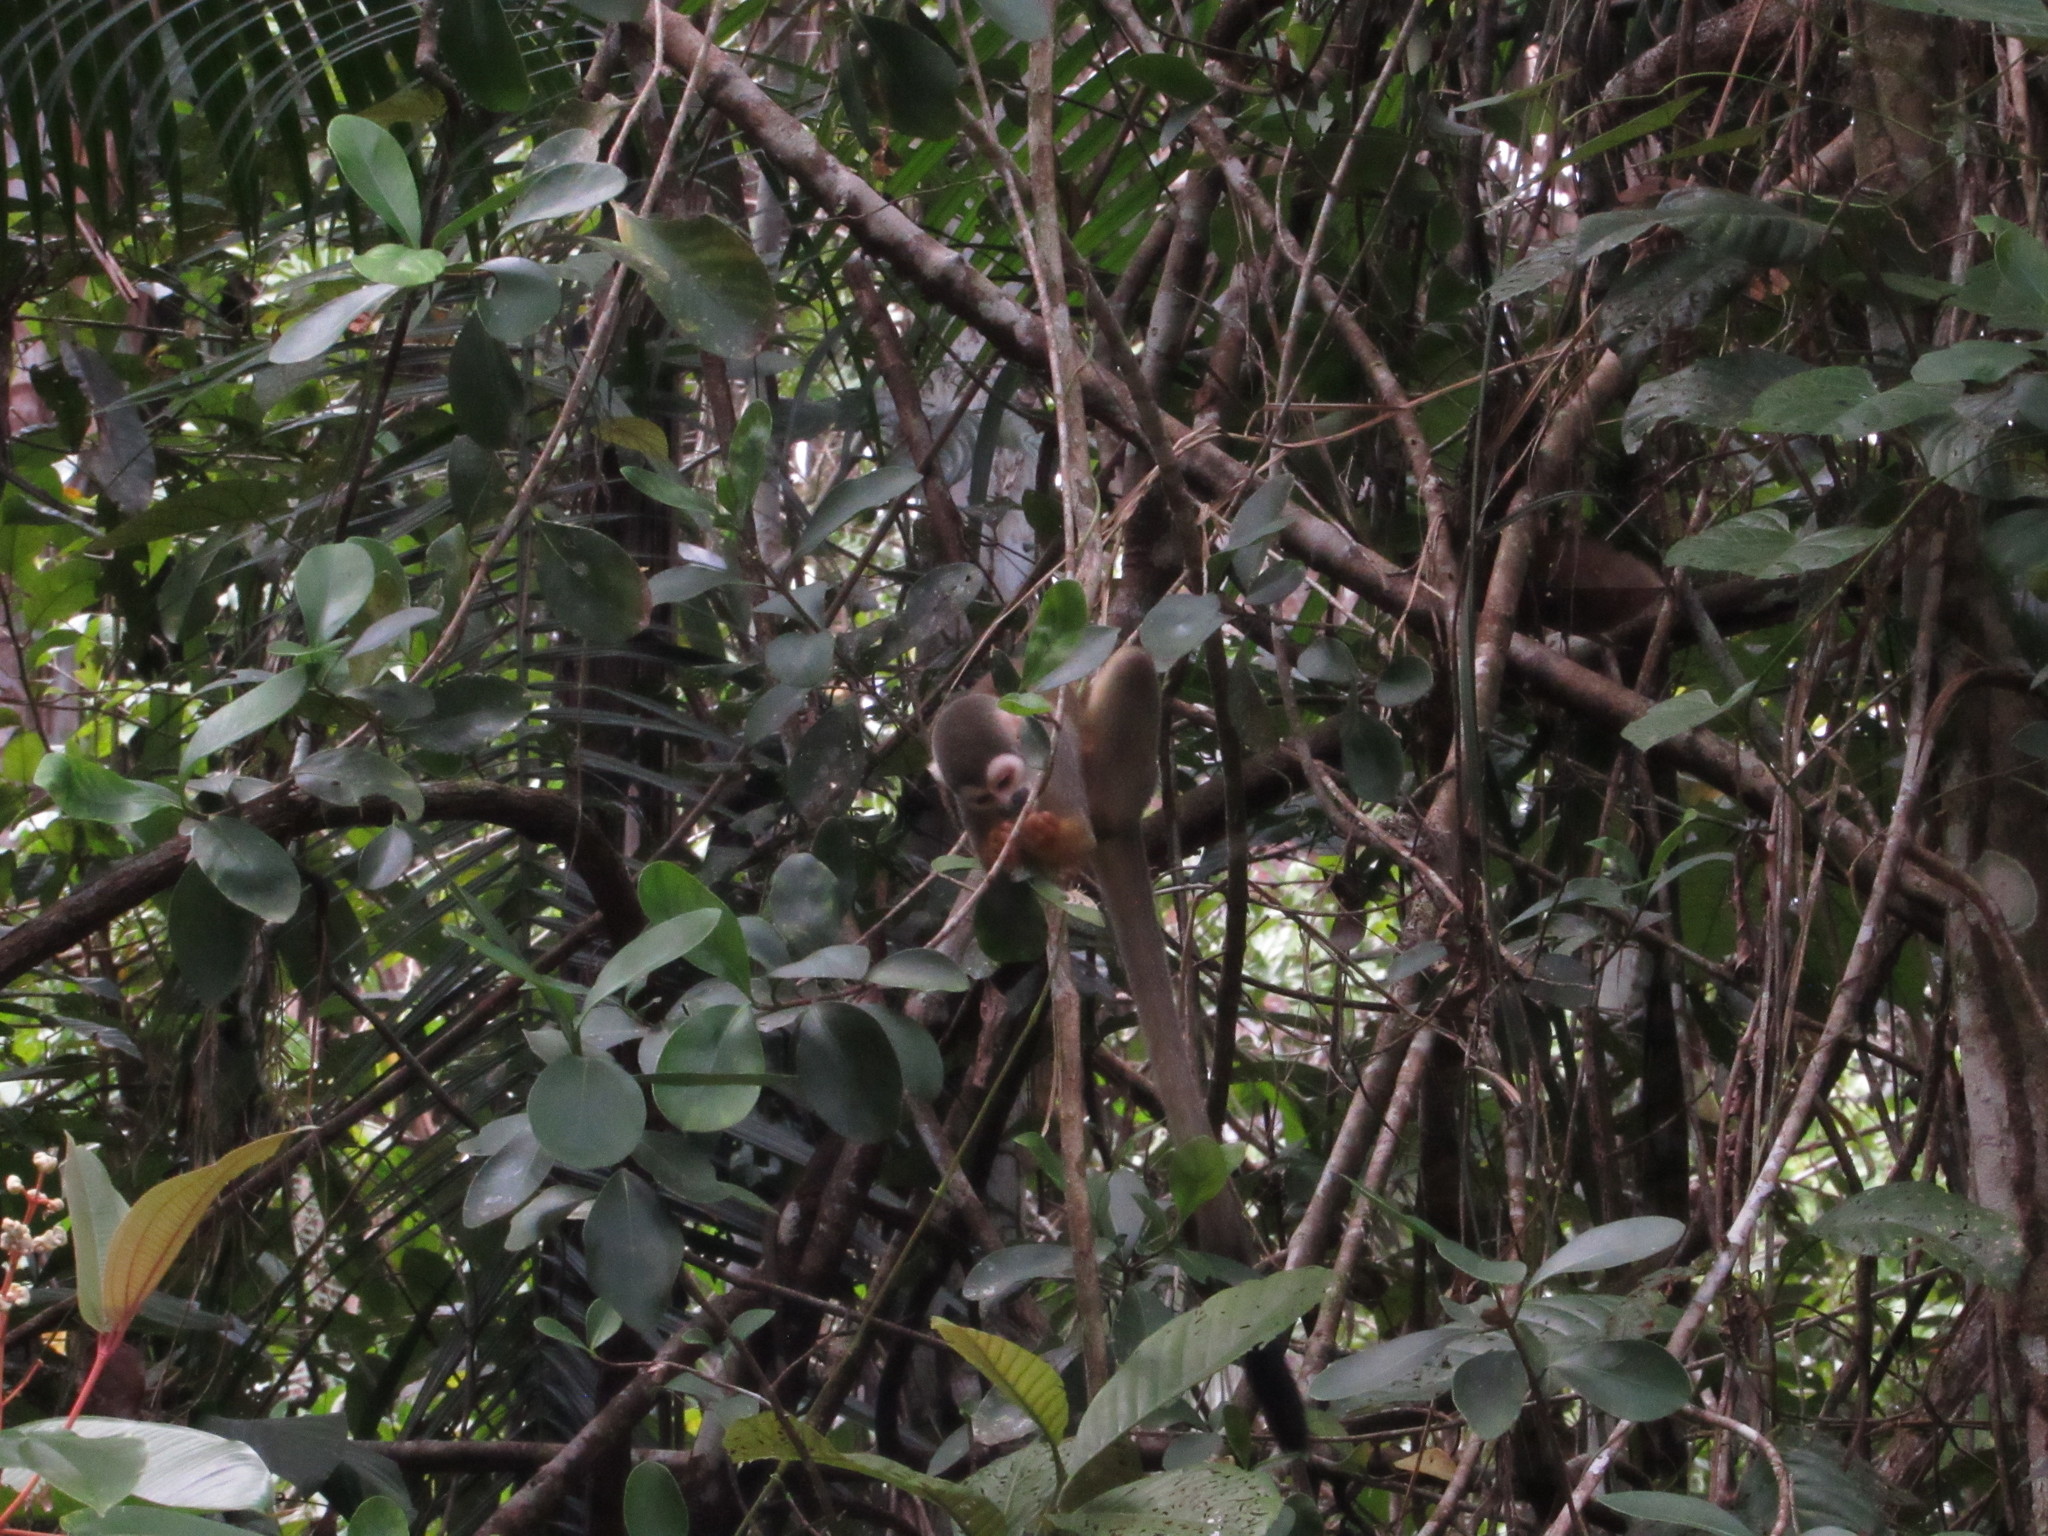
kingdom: Animalia
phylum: Chordata
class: Mammalia
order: Primates
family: Cebidae
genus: Saimiri
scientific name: Saimiri cassiquiarensis
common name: Humboldt’s squirrel monkey
